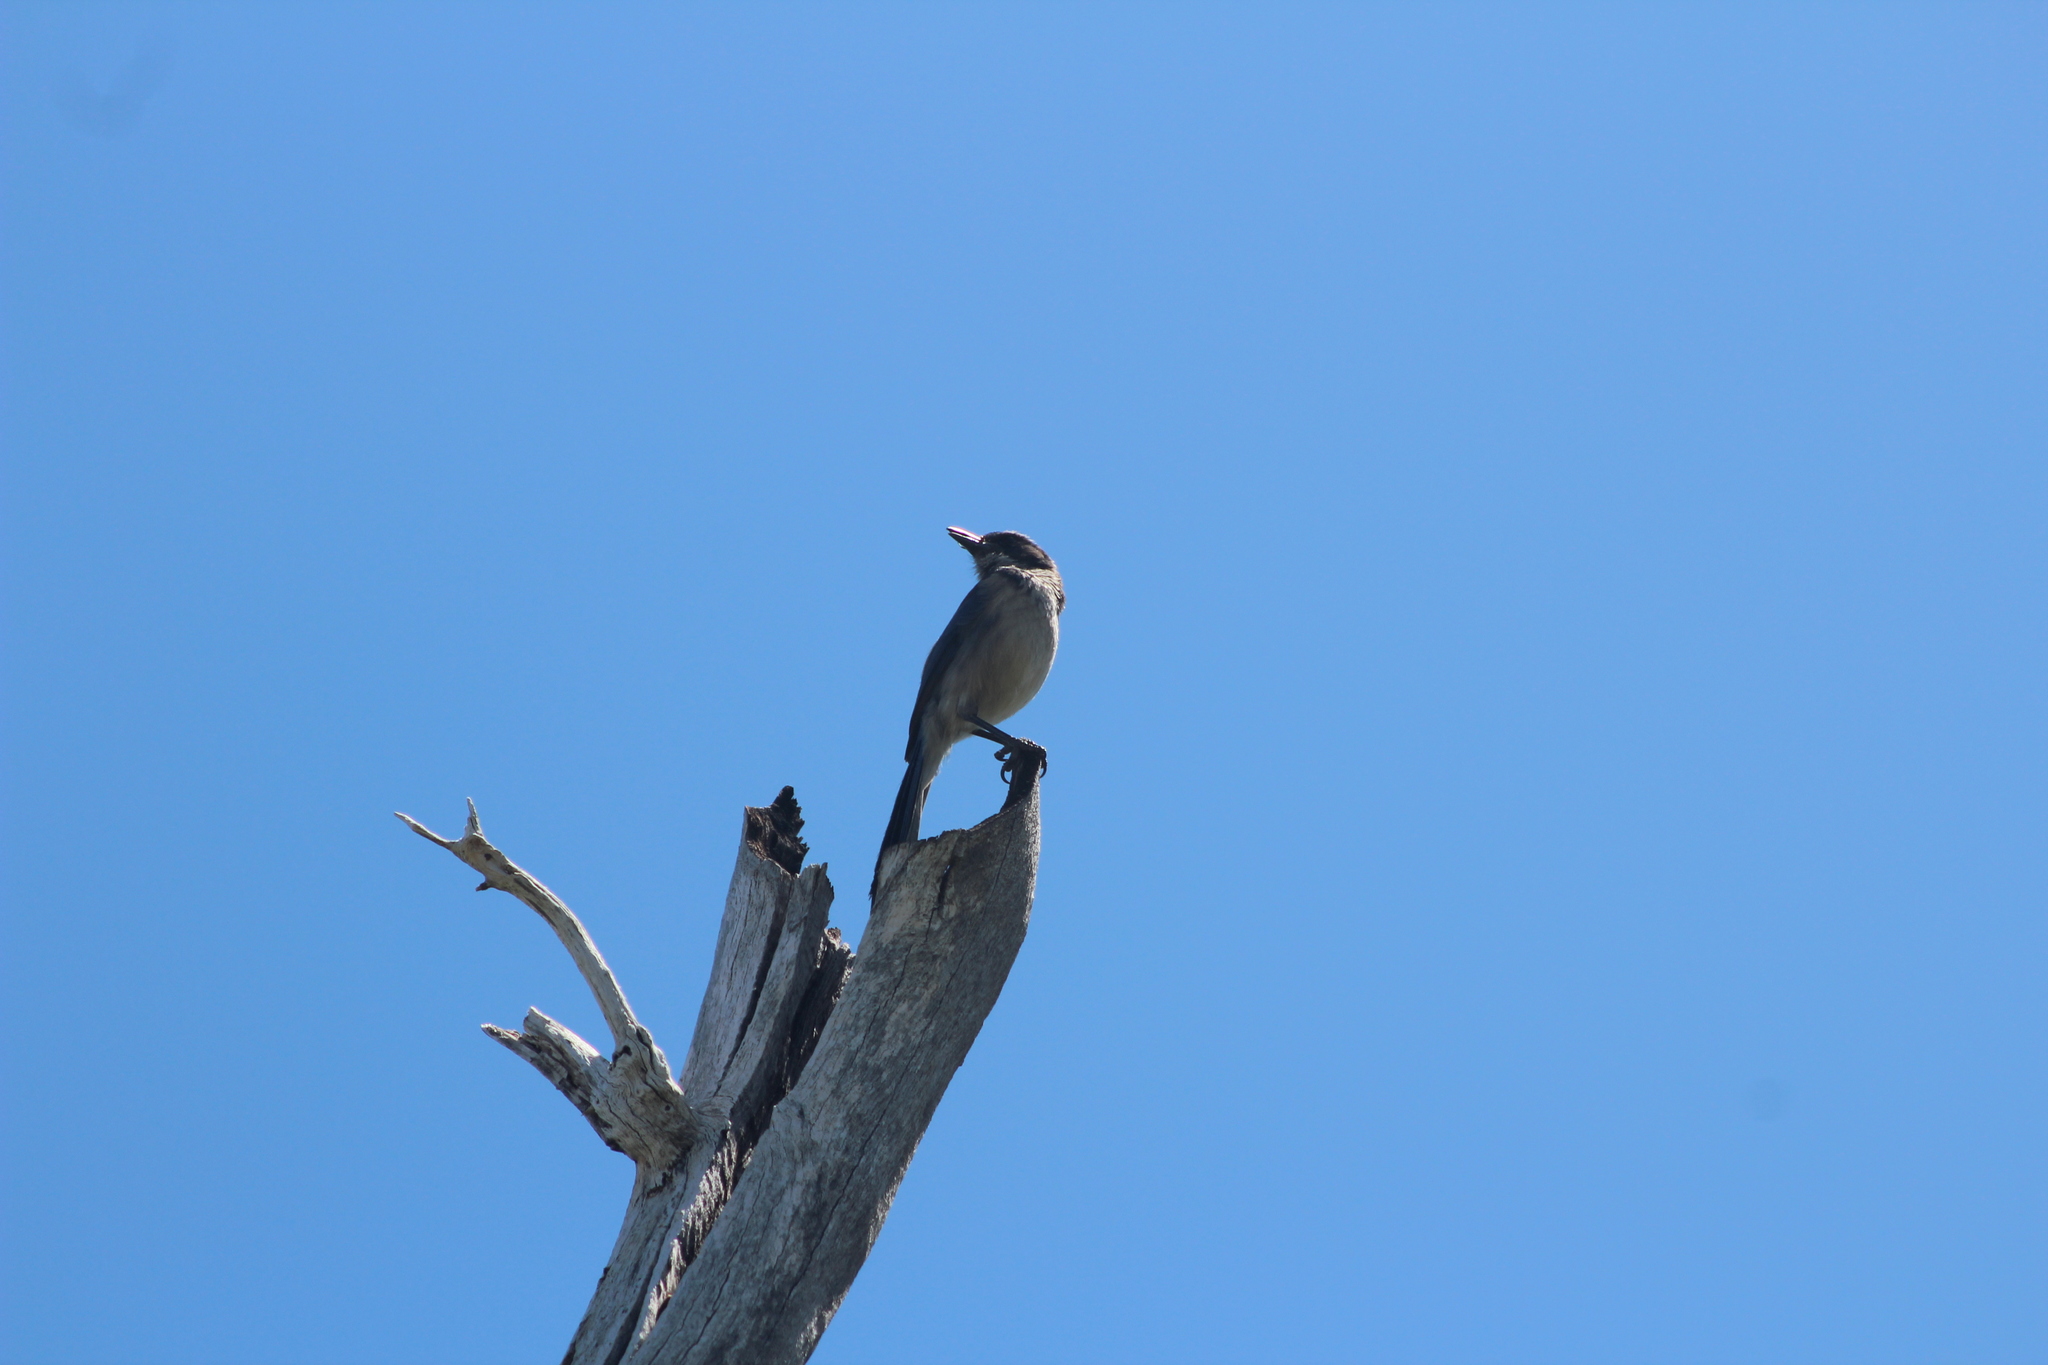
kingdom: Animalia
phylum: Chordata
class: Aves
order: Passeriformes
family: Corvidae
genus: Aphelocoma
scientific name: Aphelocoma californica
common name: California scrub-jay
